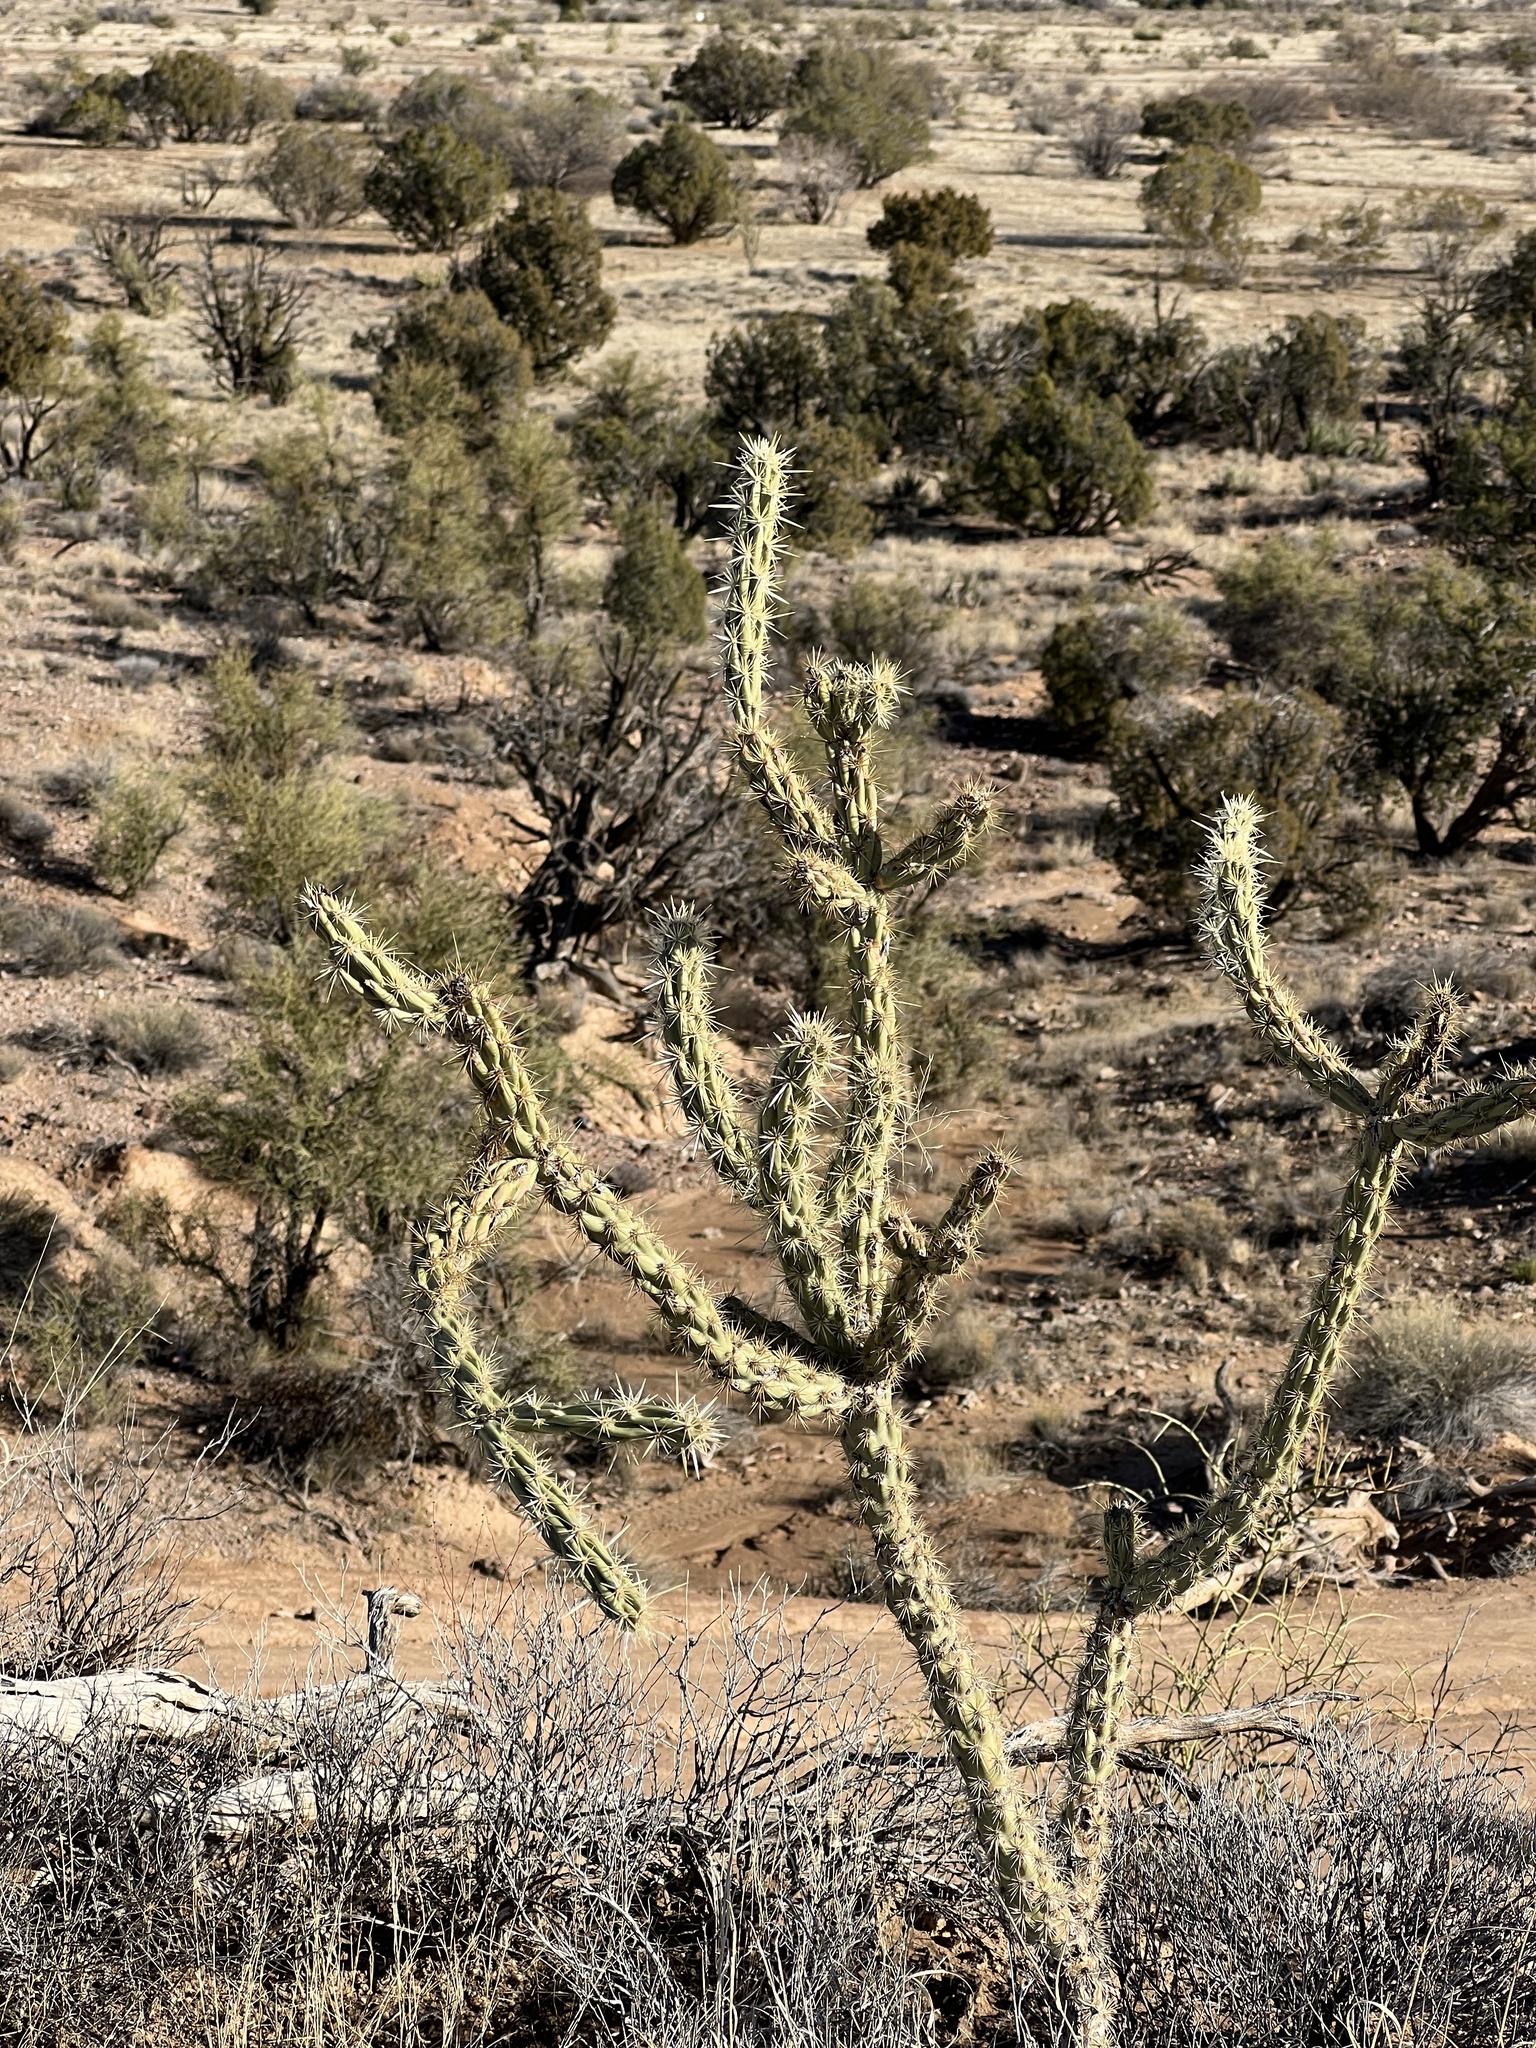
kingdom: Plantae
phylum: Tracheophyta
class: Magnoliopsida
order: Caryophyllales
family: Cactaceae
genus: Cylindropuntia
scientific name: Cylindropuntia acanthocarpa
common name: Buckhorn cholla
